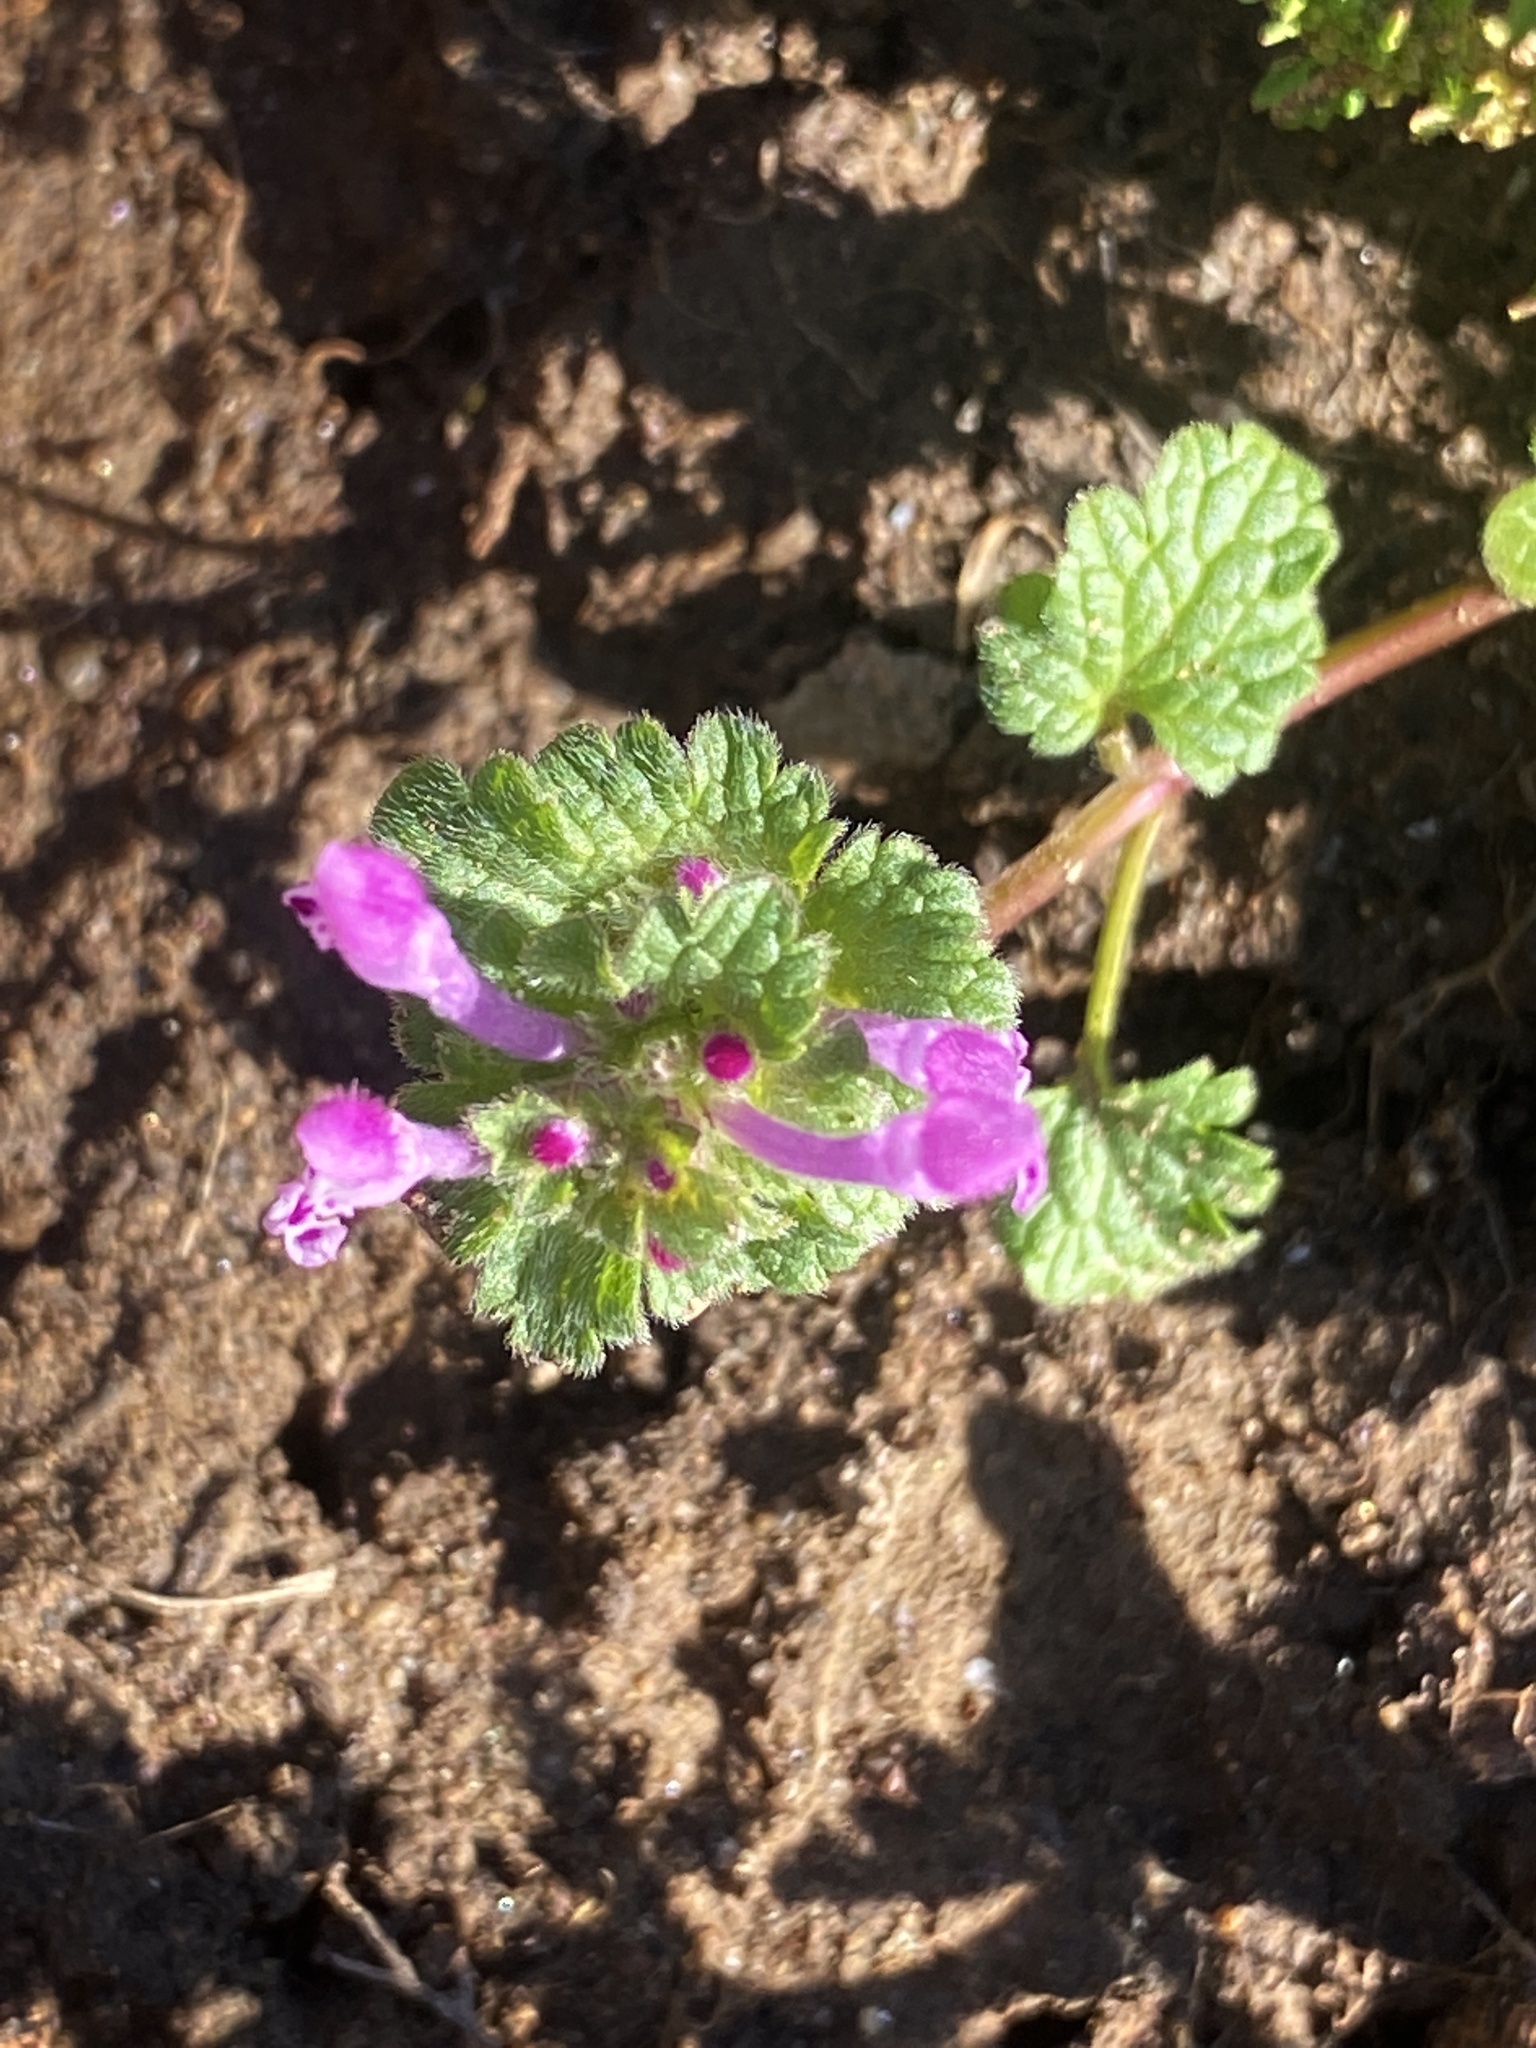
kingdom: Plantae
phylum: Tracheophyta
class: Magnoliopsida
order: Lamiales
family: Lamiaceae
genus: Lamium
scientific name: Lamium amplexicaule
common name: Henbit dead-nettle
